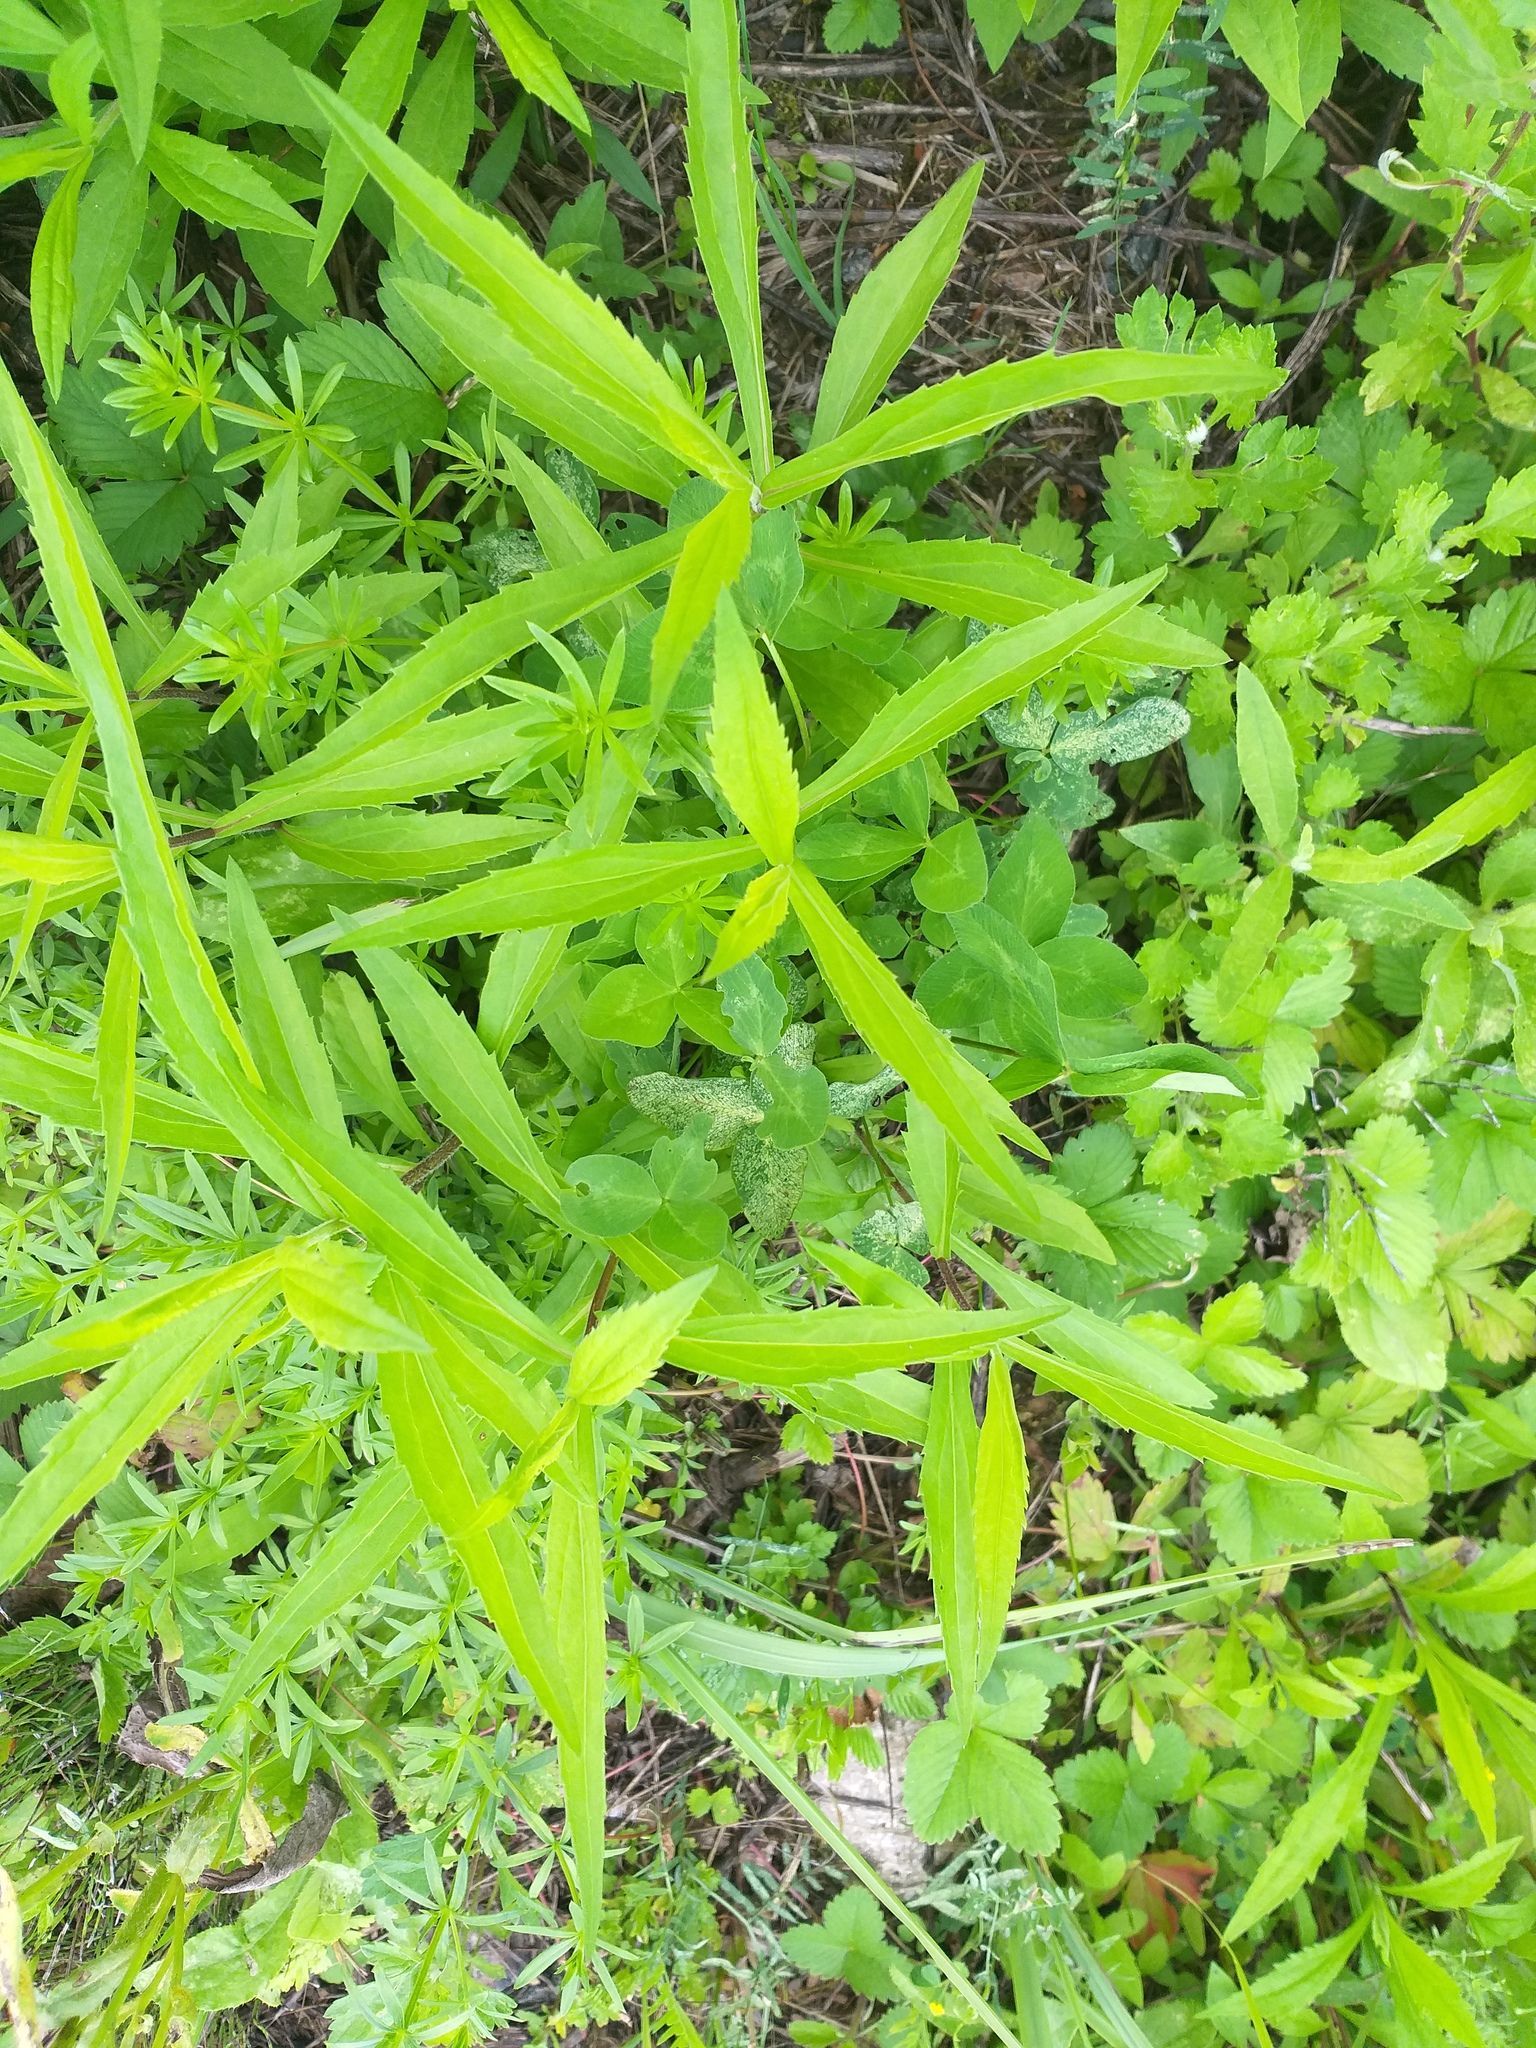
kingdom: Plantae
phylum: Tracheophyta
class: Magnoliopsida
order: Asterales
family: Asteraceae
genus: Solidago
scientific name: Solidago canadensis
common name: Canada goldenrod
